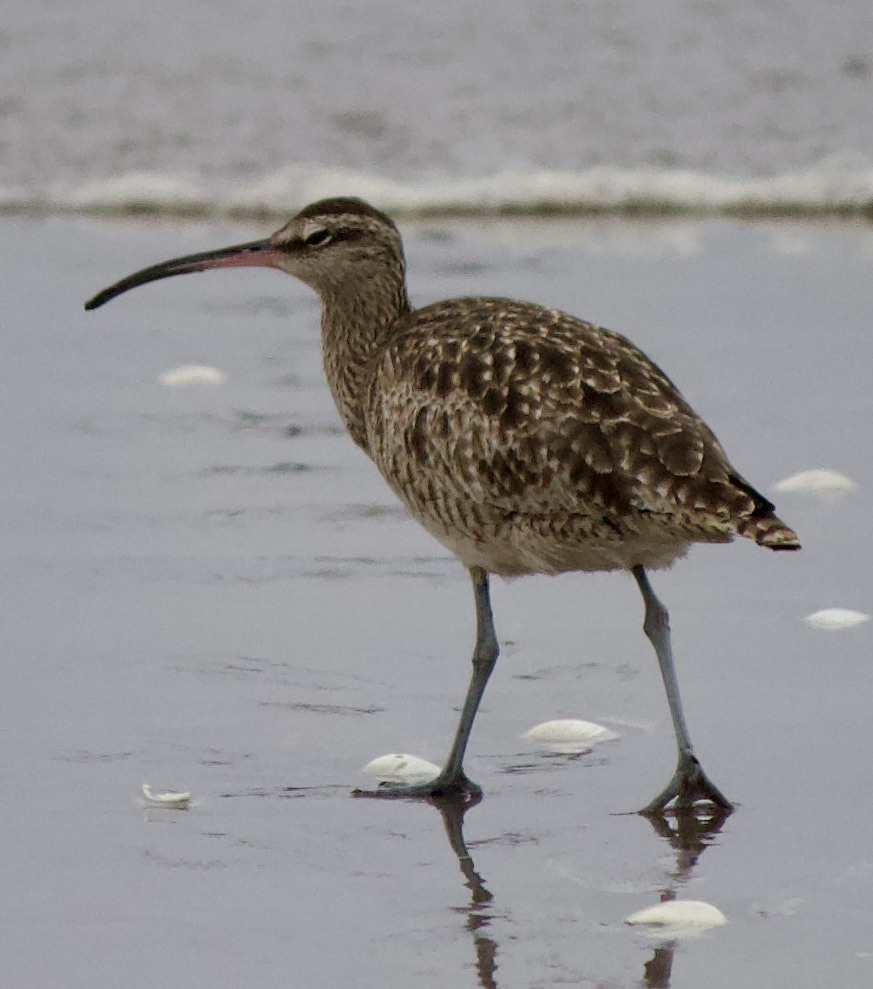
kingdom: Animalia
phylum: Chordata
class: Aves
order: Charadriiformes
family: Scolopacidae
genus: Numenius
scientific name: Numenius phaeopus
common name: Whimbrel
